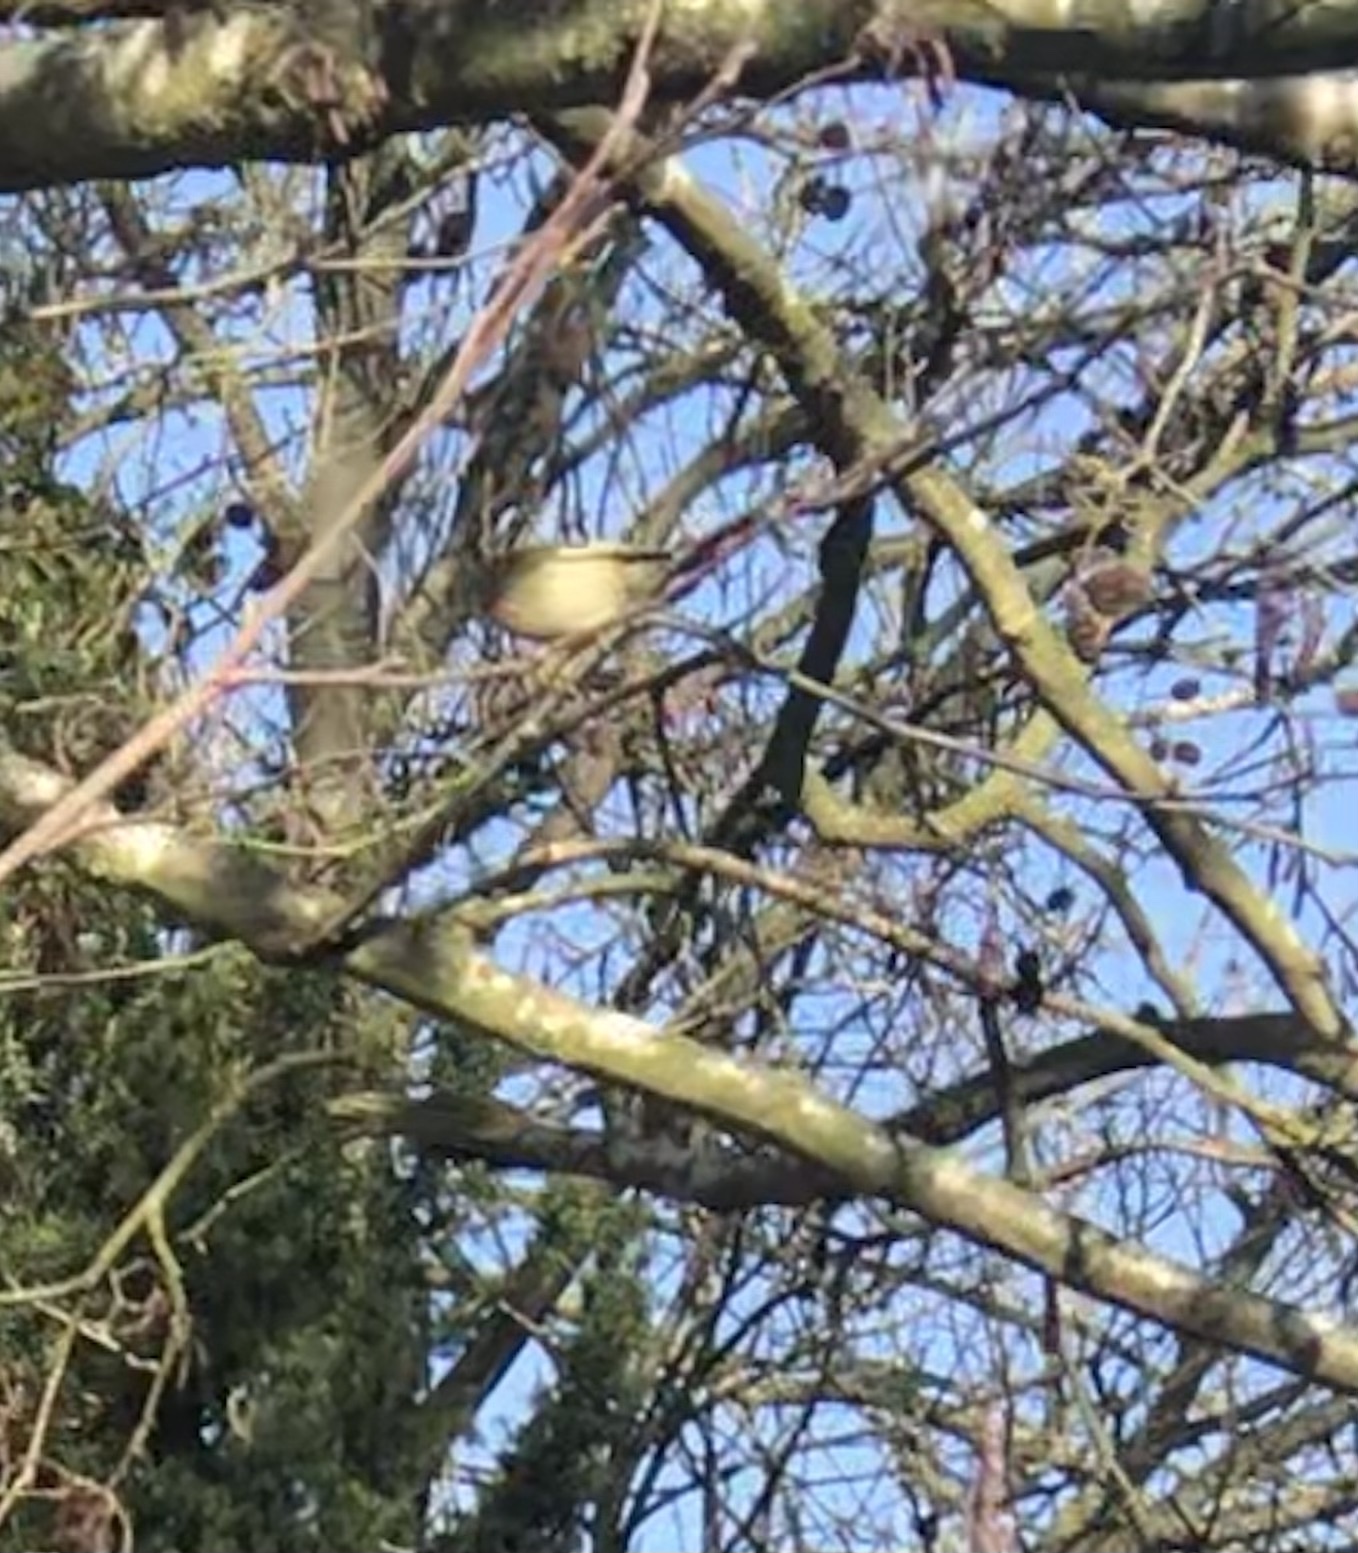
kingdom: Animalia
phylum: Chordata
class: Aves
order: Passeriformes
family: Regulidae
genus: Regulus
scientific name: Regulus regulus
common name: Goldcrest
